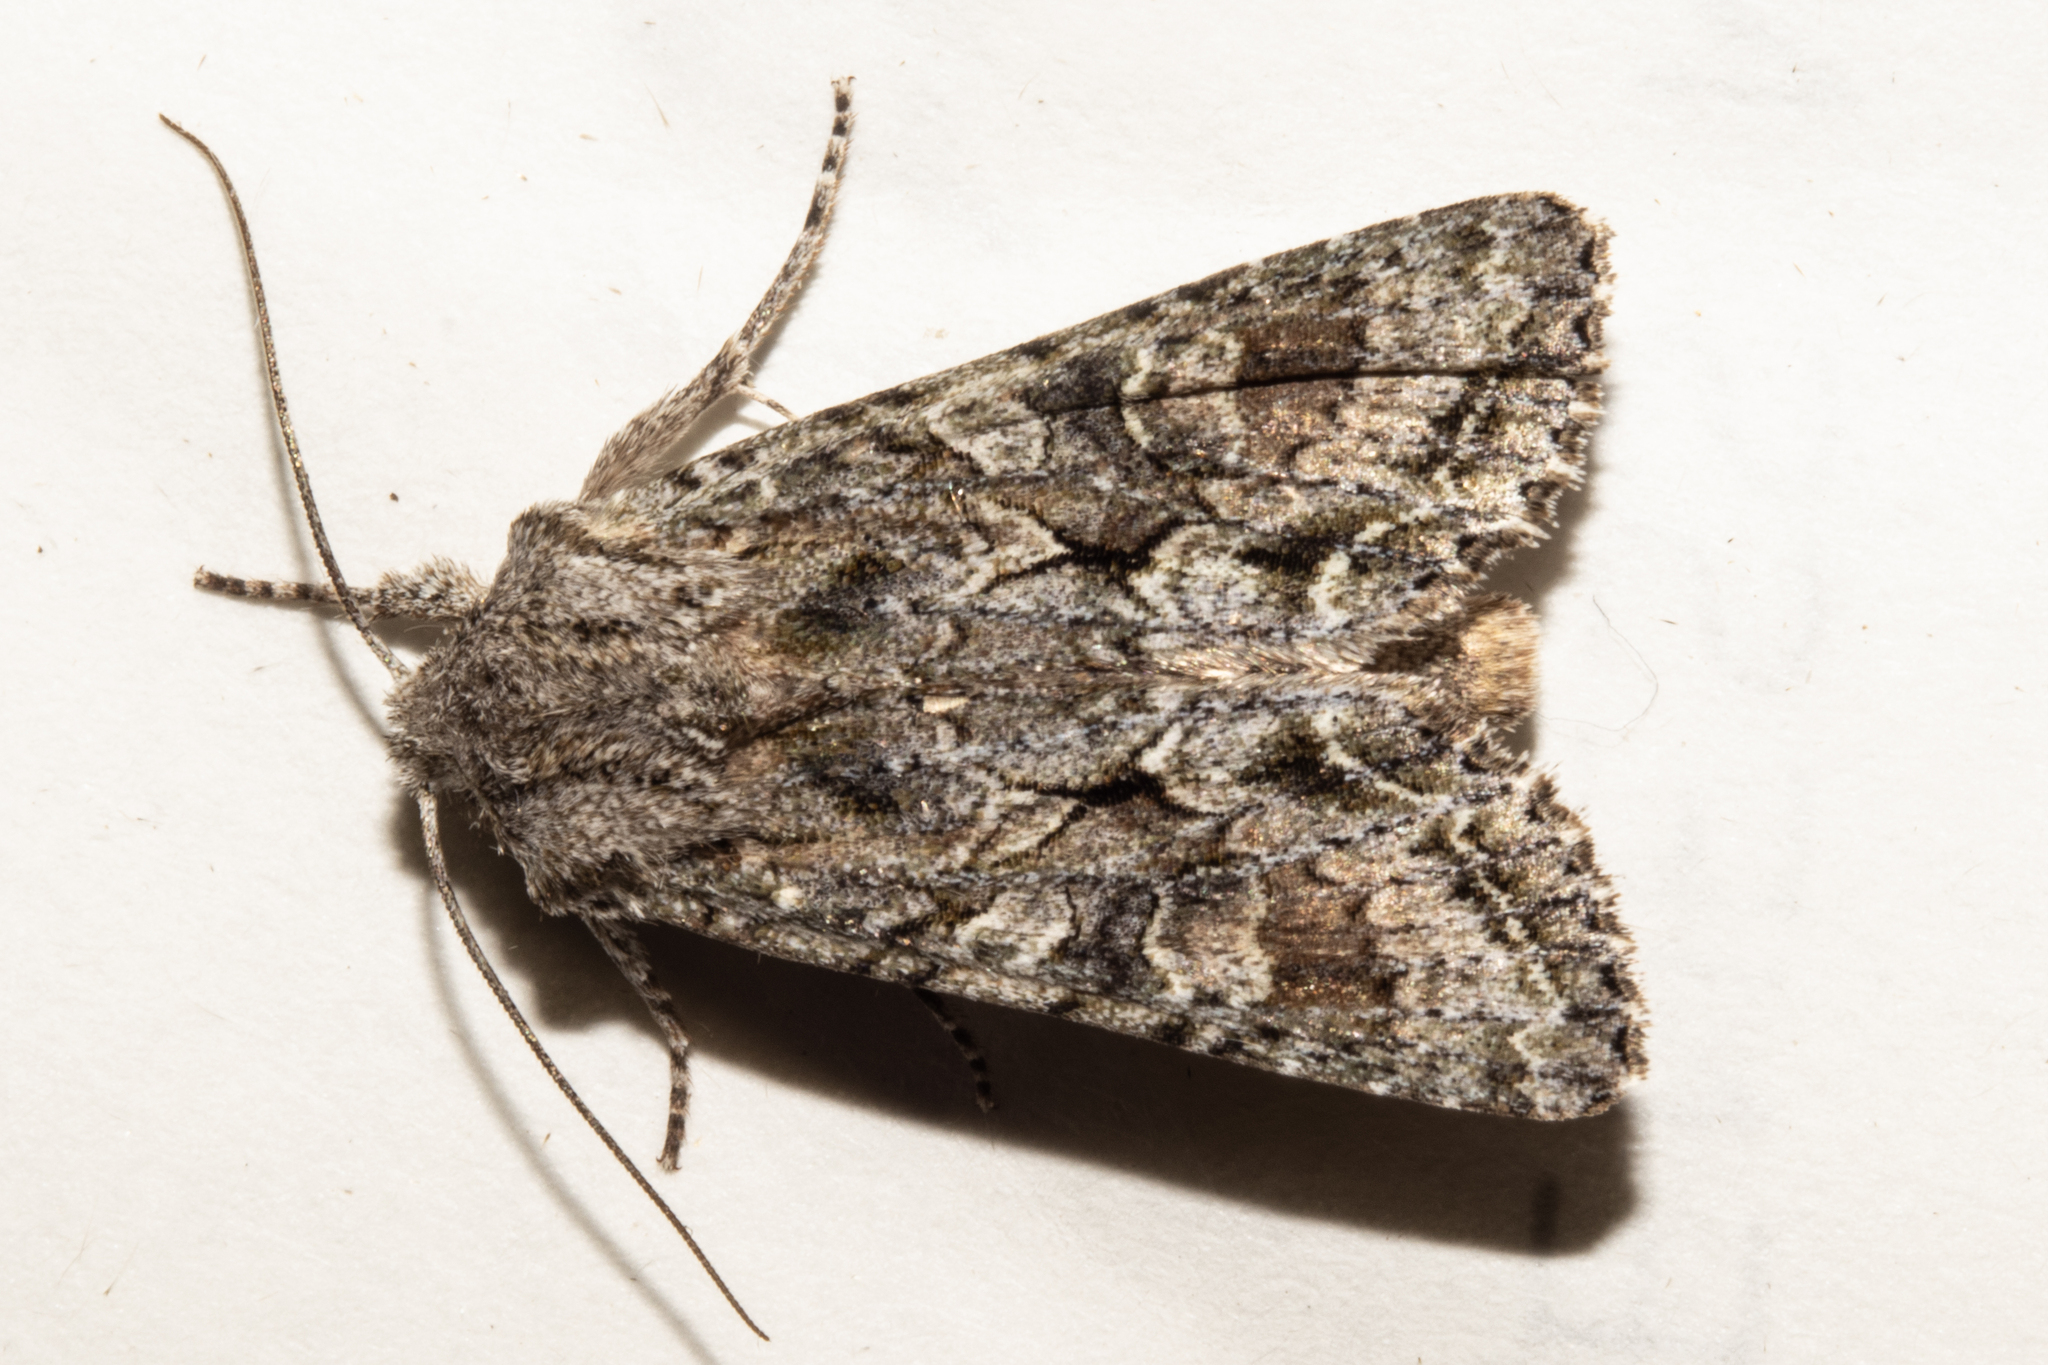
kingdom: Animalia
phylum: Arthropoda
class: Insecta
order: Lepidoptera
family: Noctuidae
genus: Ichneutica
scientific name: Ichneutica mutans
